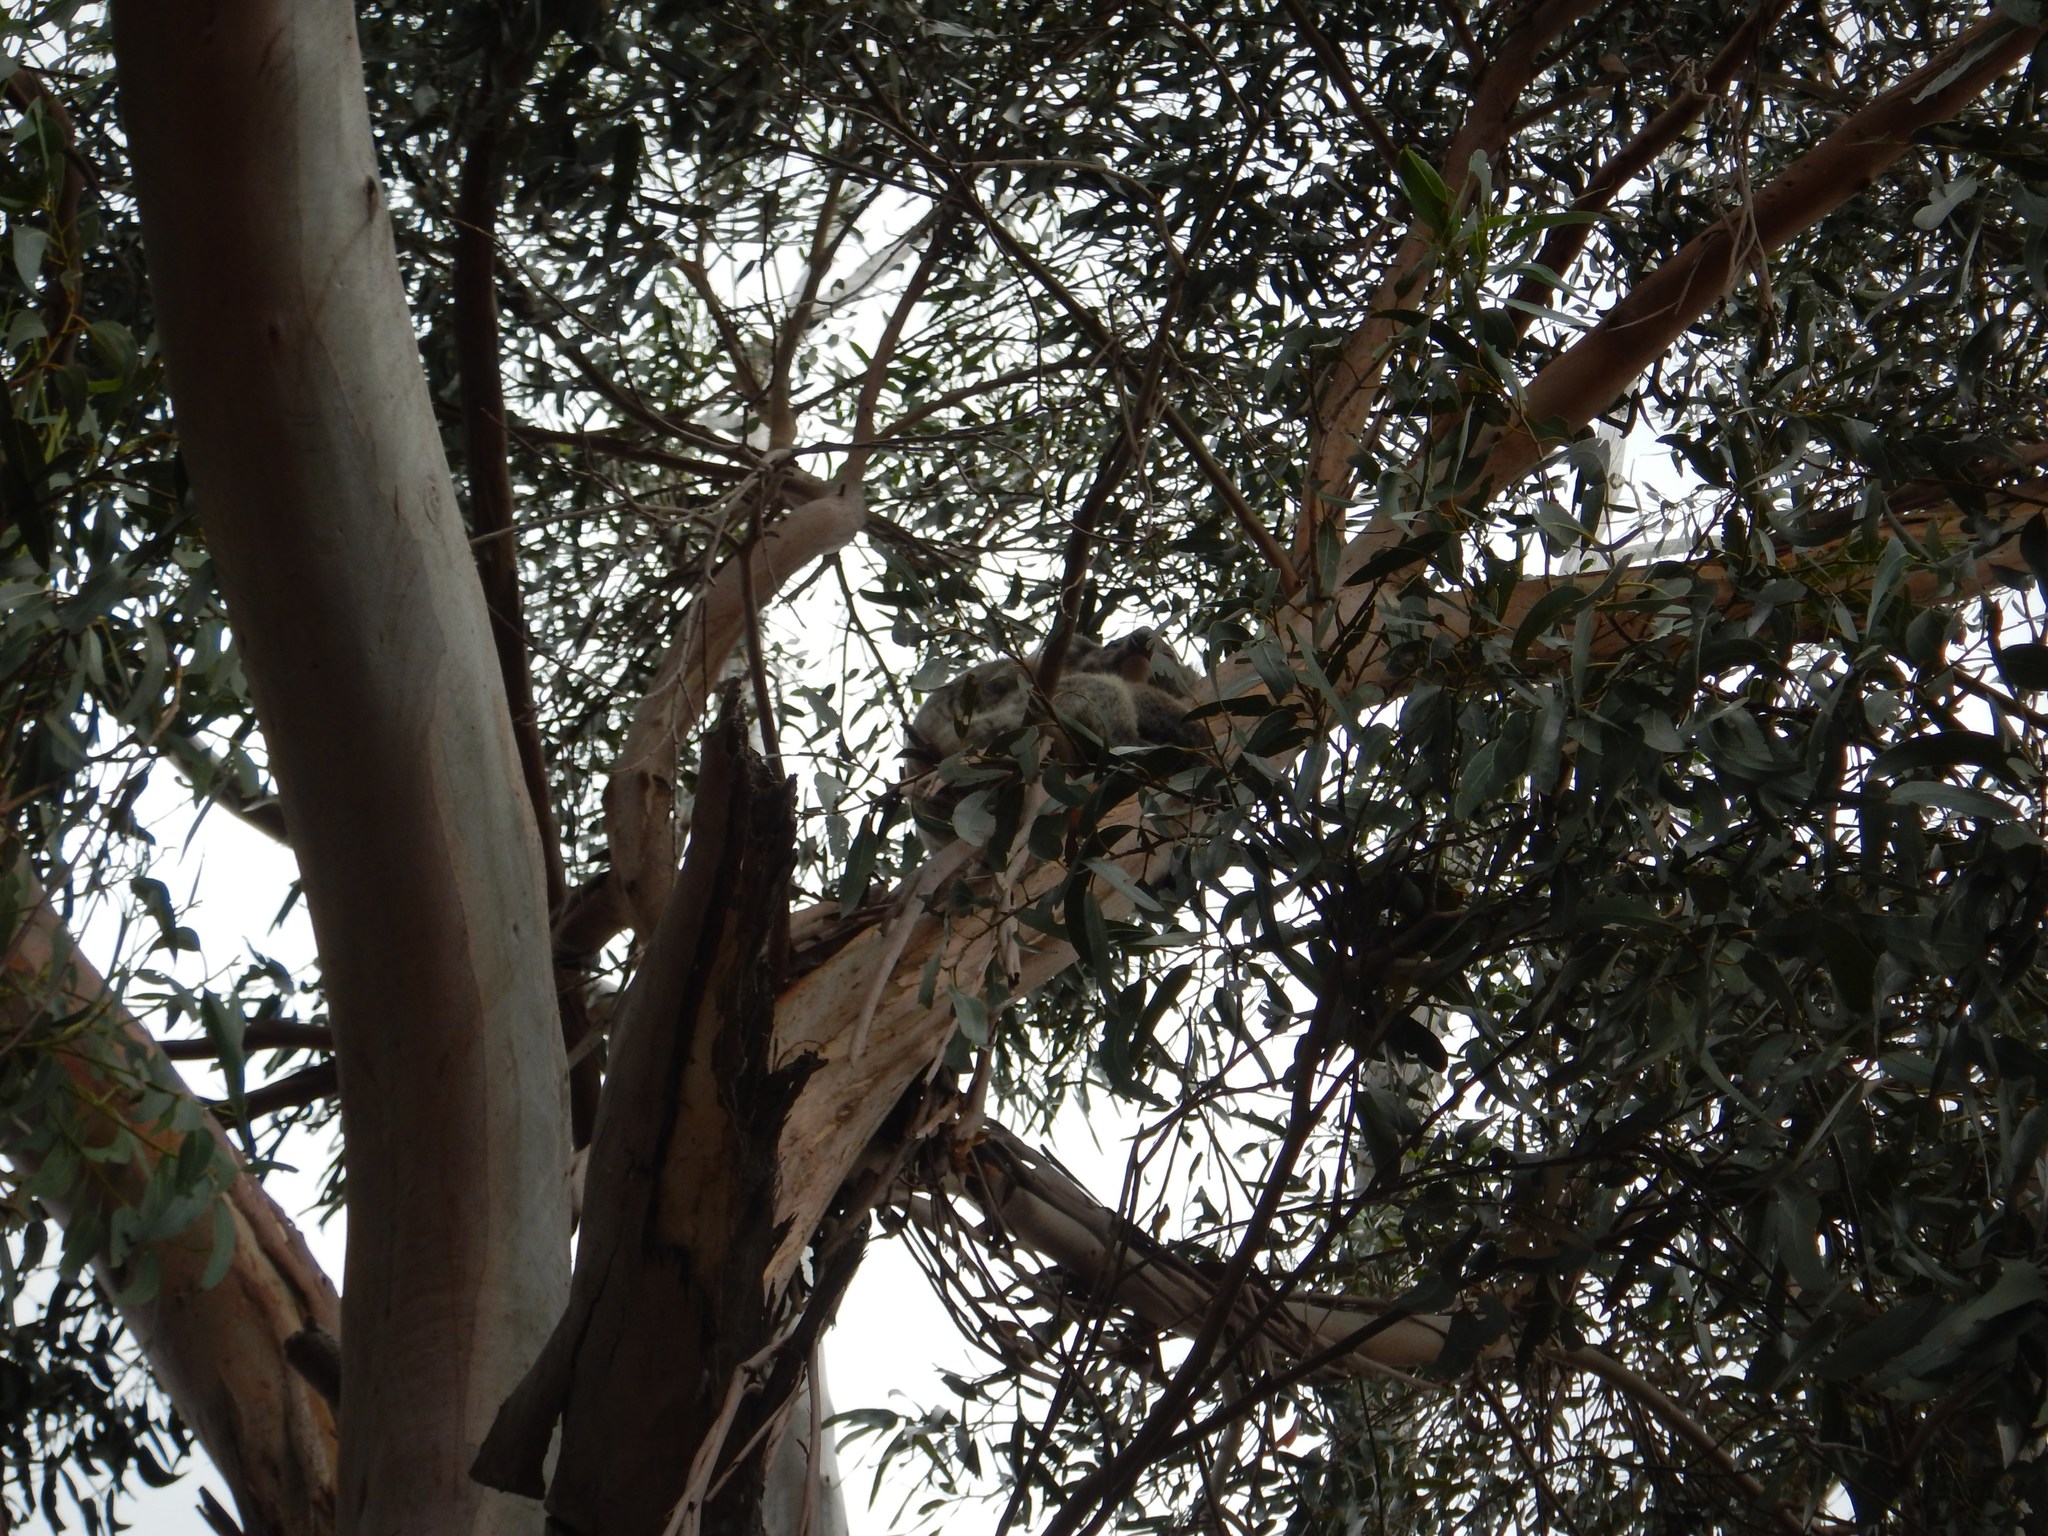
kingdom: Animalia
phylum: Chordata
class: Mammalia
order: Diprotodontia
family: Phascolarctidae
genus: Phascolarctos
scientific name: Phascolarctos cinereus
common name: Koala
